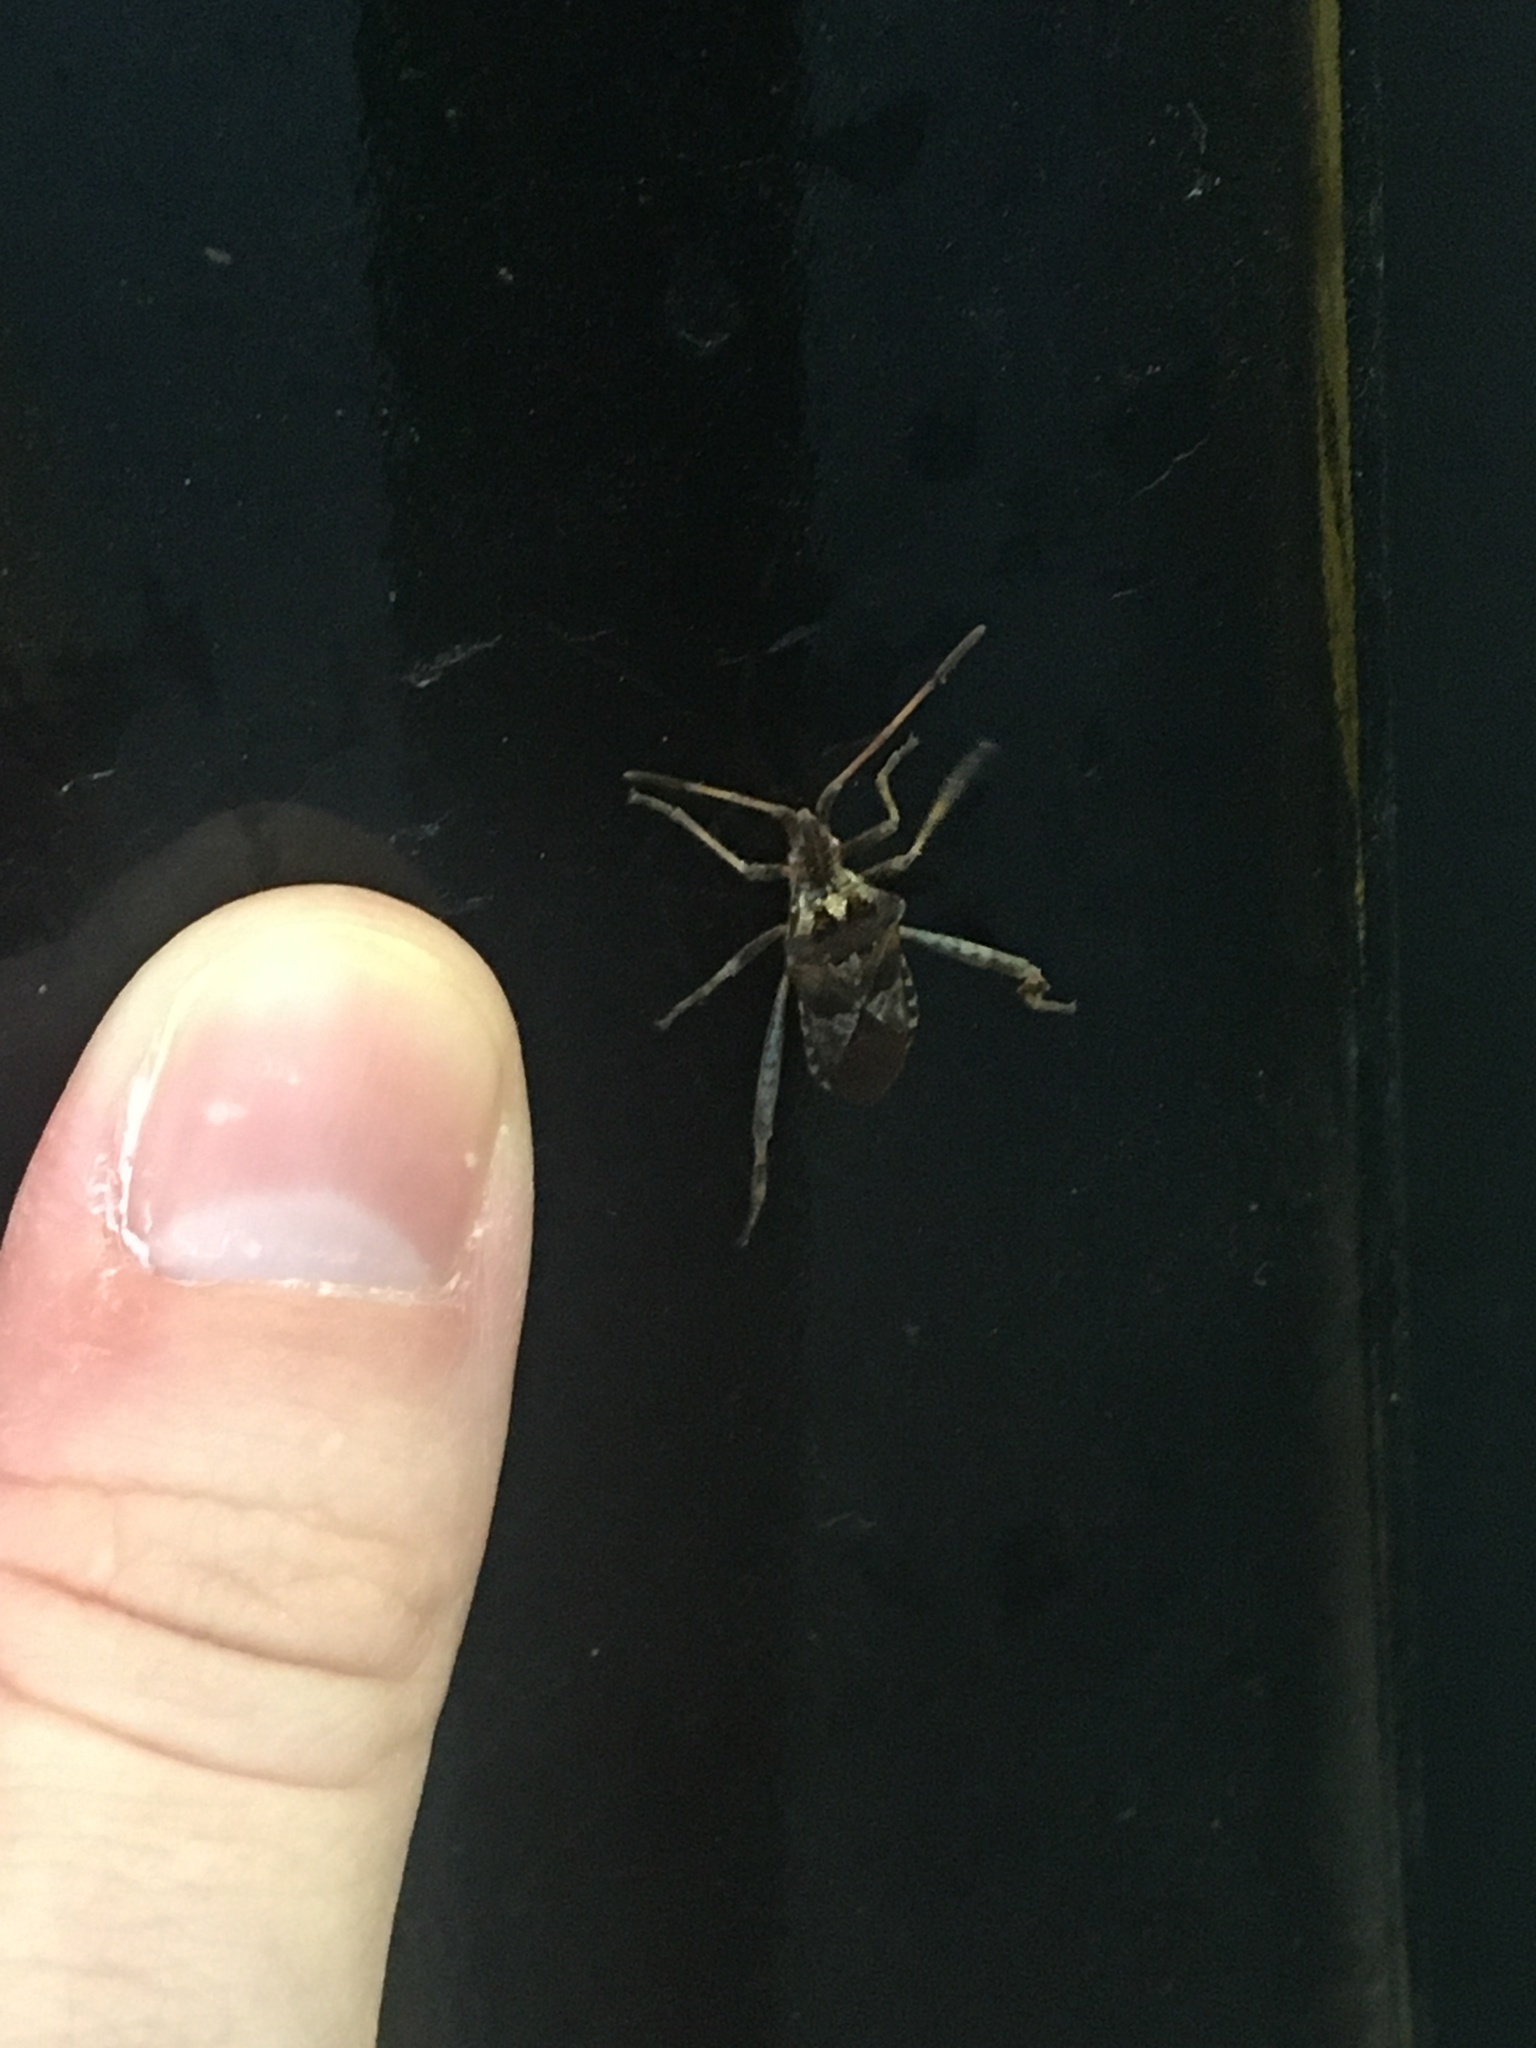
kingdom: Animalia
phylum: Arthropoda
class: Insecta
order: Hemiptera
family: Coreidae
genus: Leptoglossus
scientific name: Leptoglossus occidentalis
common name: Western conifer-seed bug
